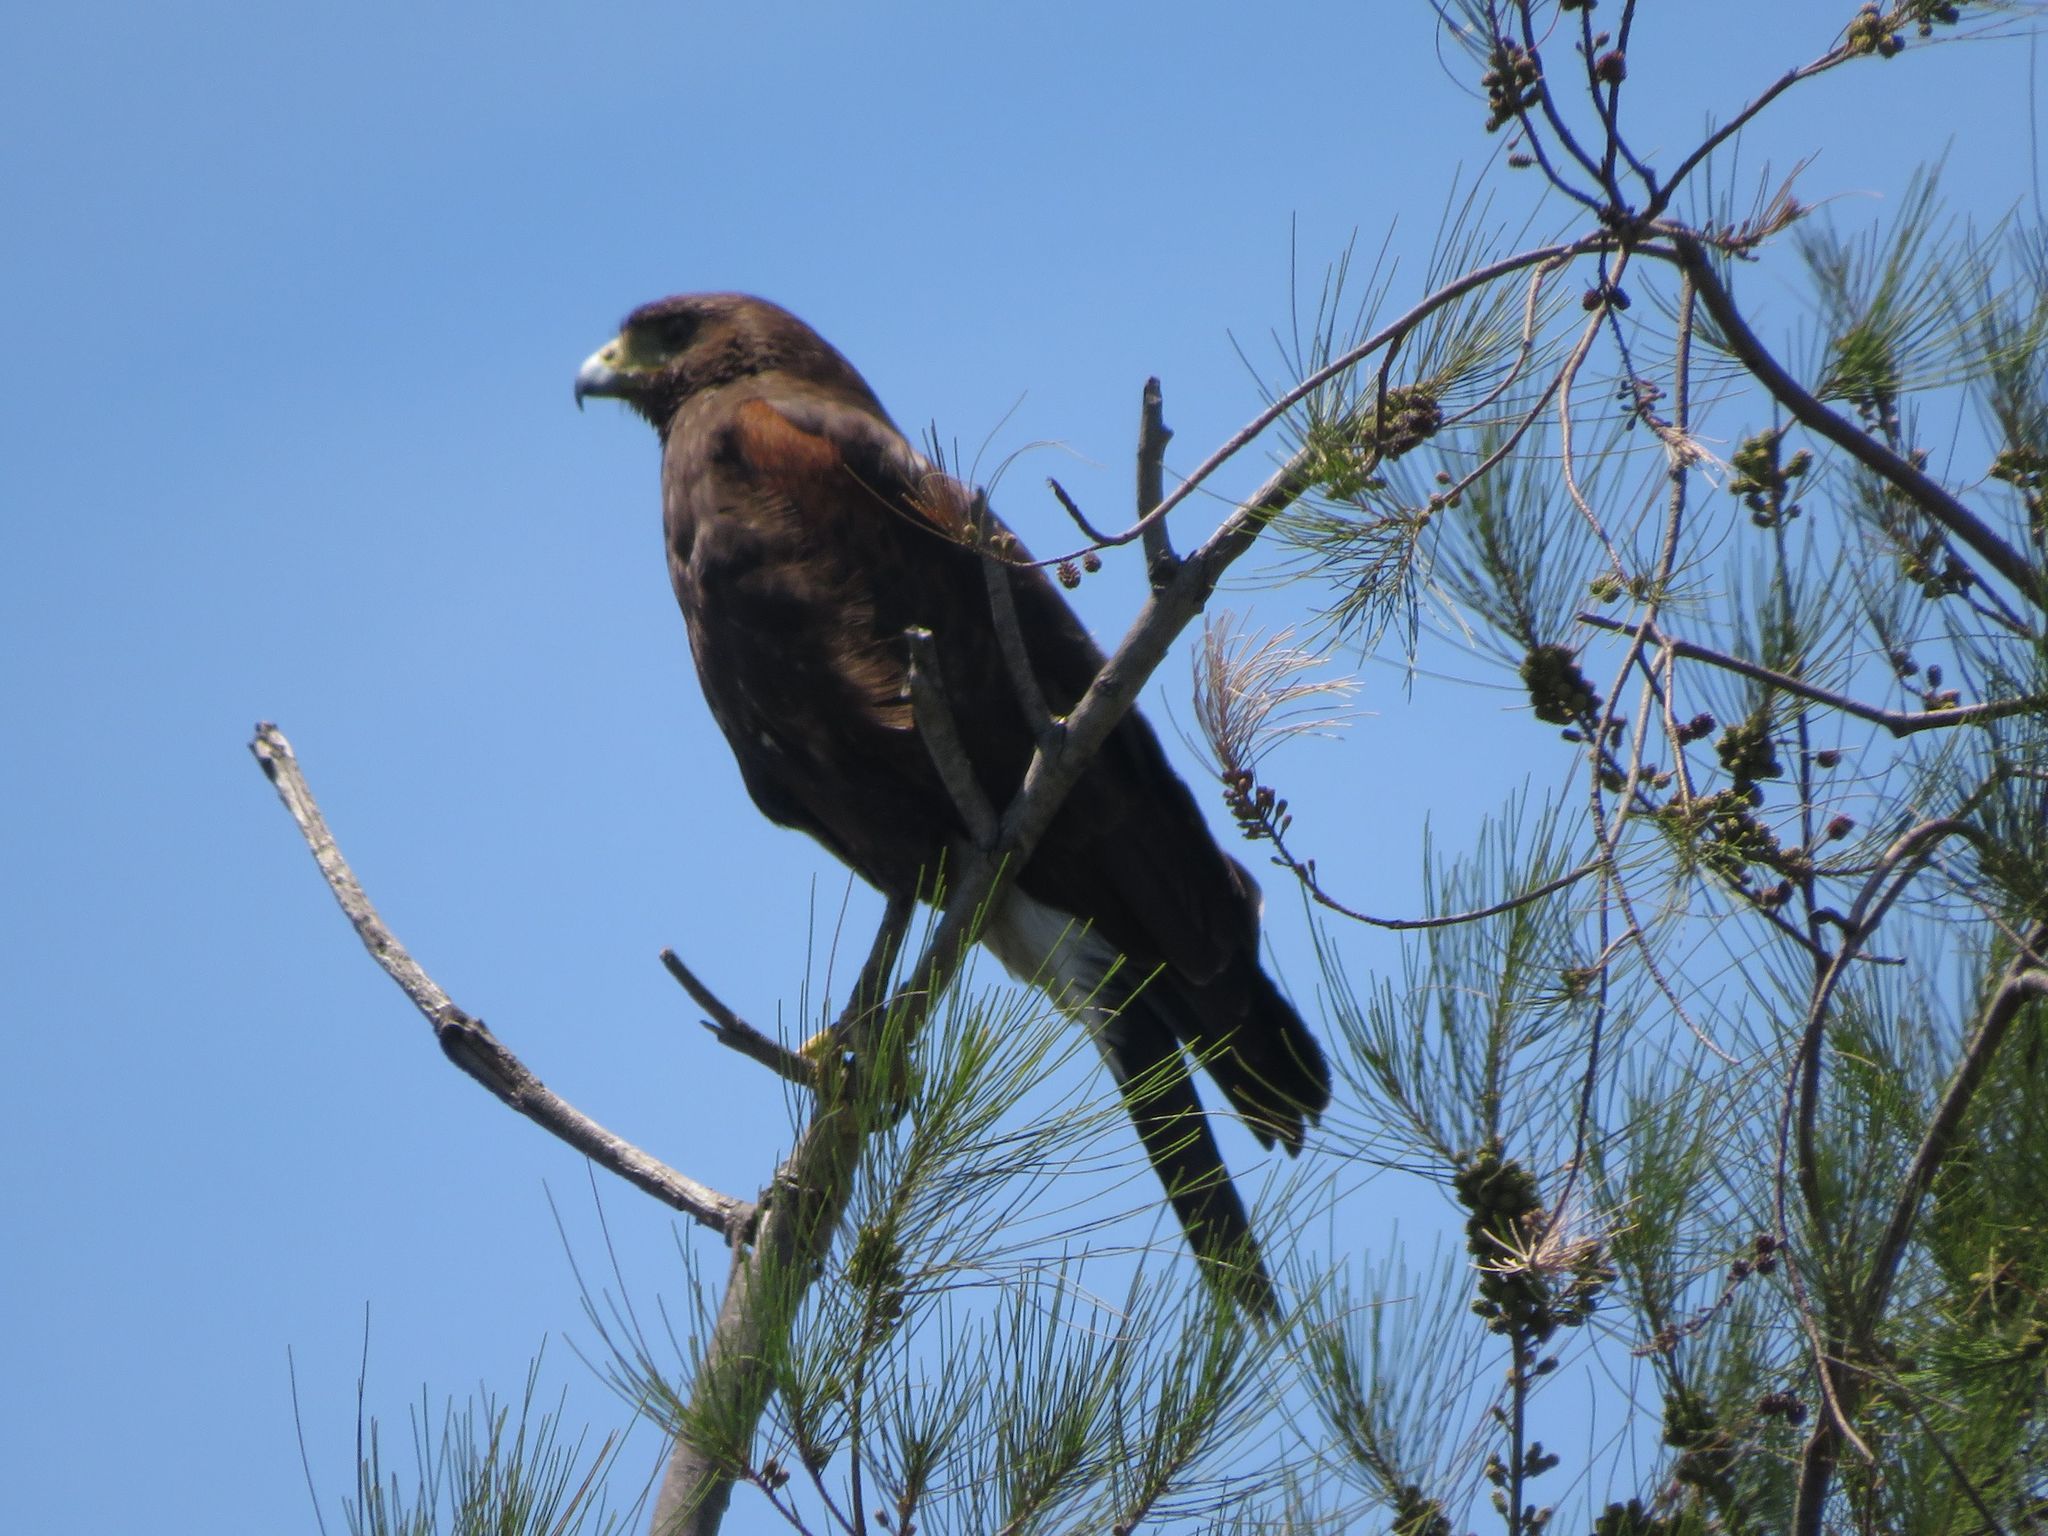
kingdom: Animalia
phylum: Chordata
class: Aves
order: Accipitriformes
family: Accipitridae
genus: Parabuteo
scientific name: Parabuteo unicinctus
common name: Harris's hawk
